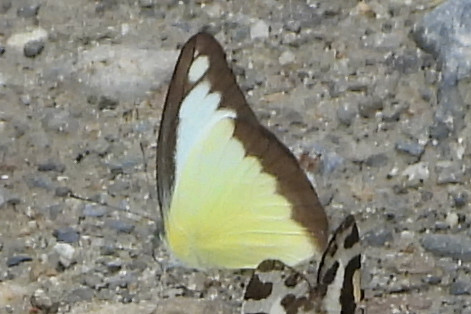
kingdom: Animalia
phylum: Arthropoda
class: Insecta
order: Lepidoptera
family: Pieridae
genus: Appias
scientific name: Appias lyncida
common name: Chocolate albatross
